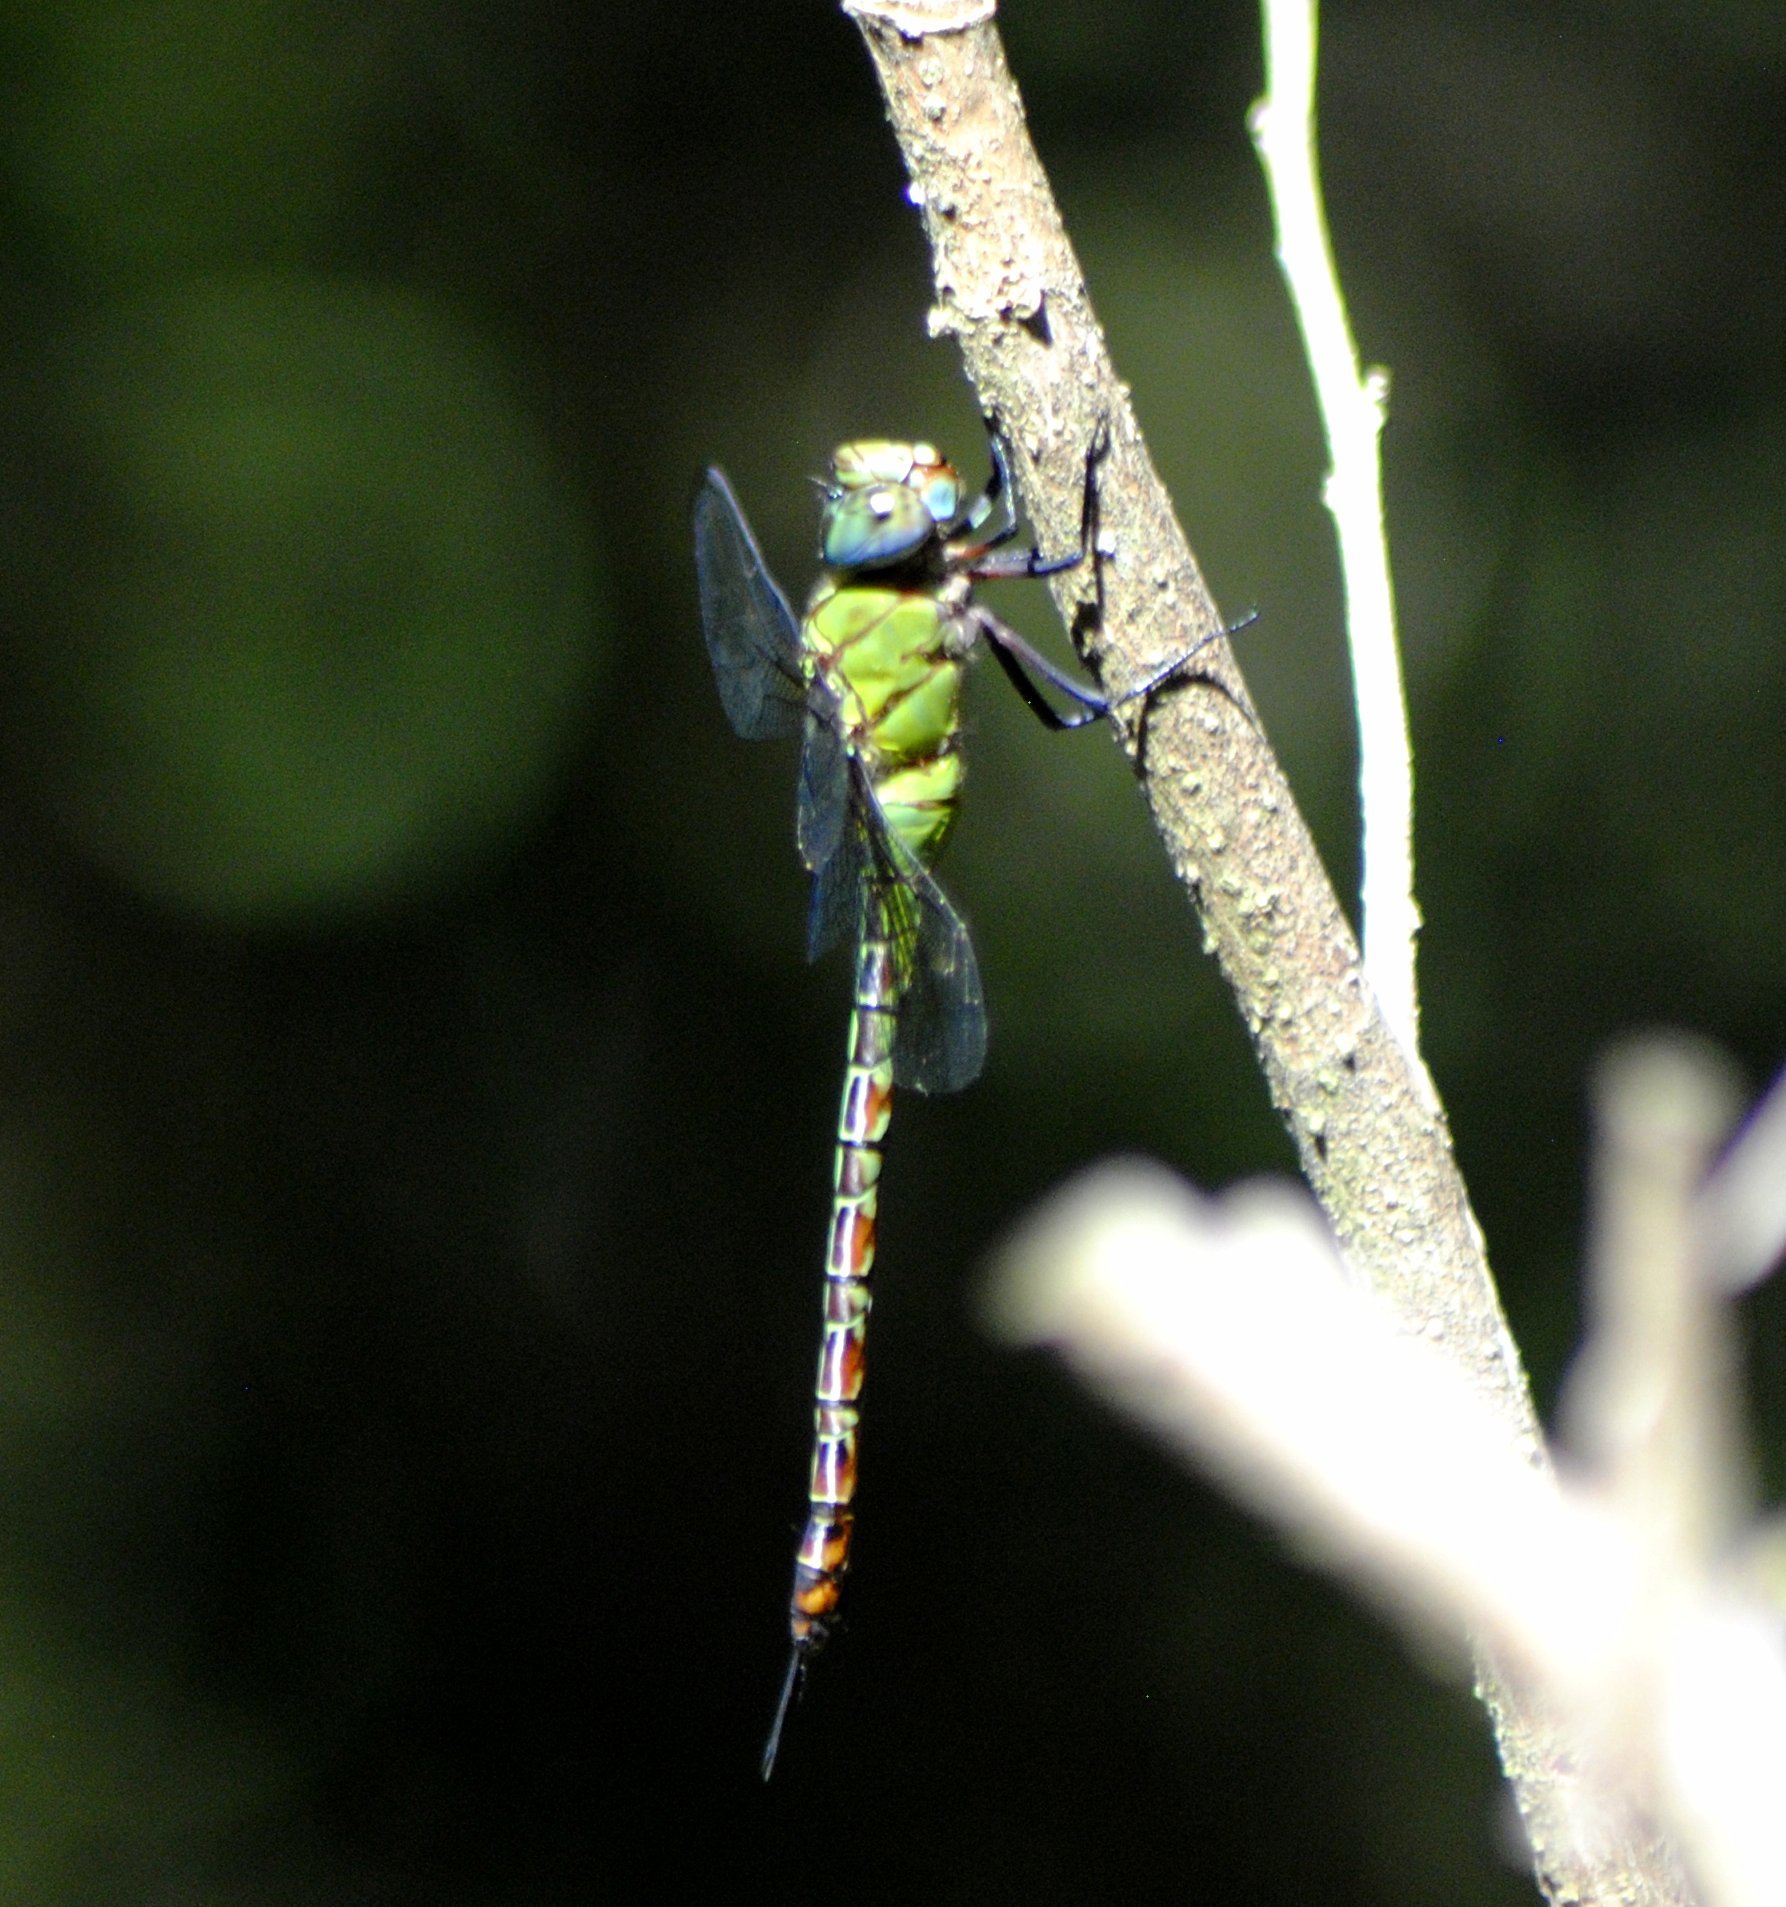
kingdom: Animalia
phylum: Arthropoda
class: Insecta
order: Odonata
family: Aeshnidae
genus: Coryphaeschna
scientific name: Coryphaeschna adnexa
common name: Blue-faced darner
